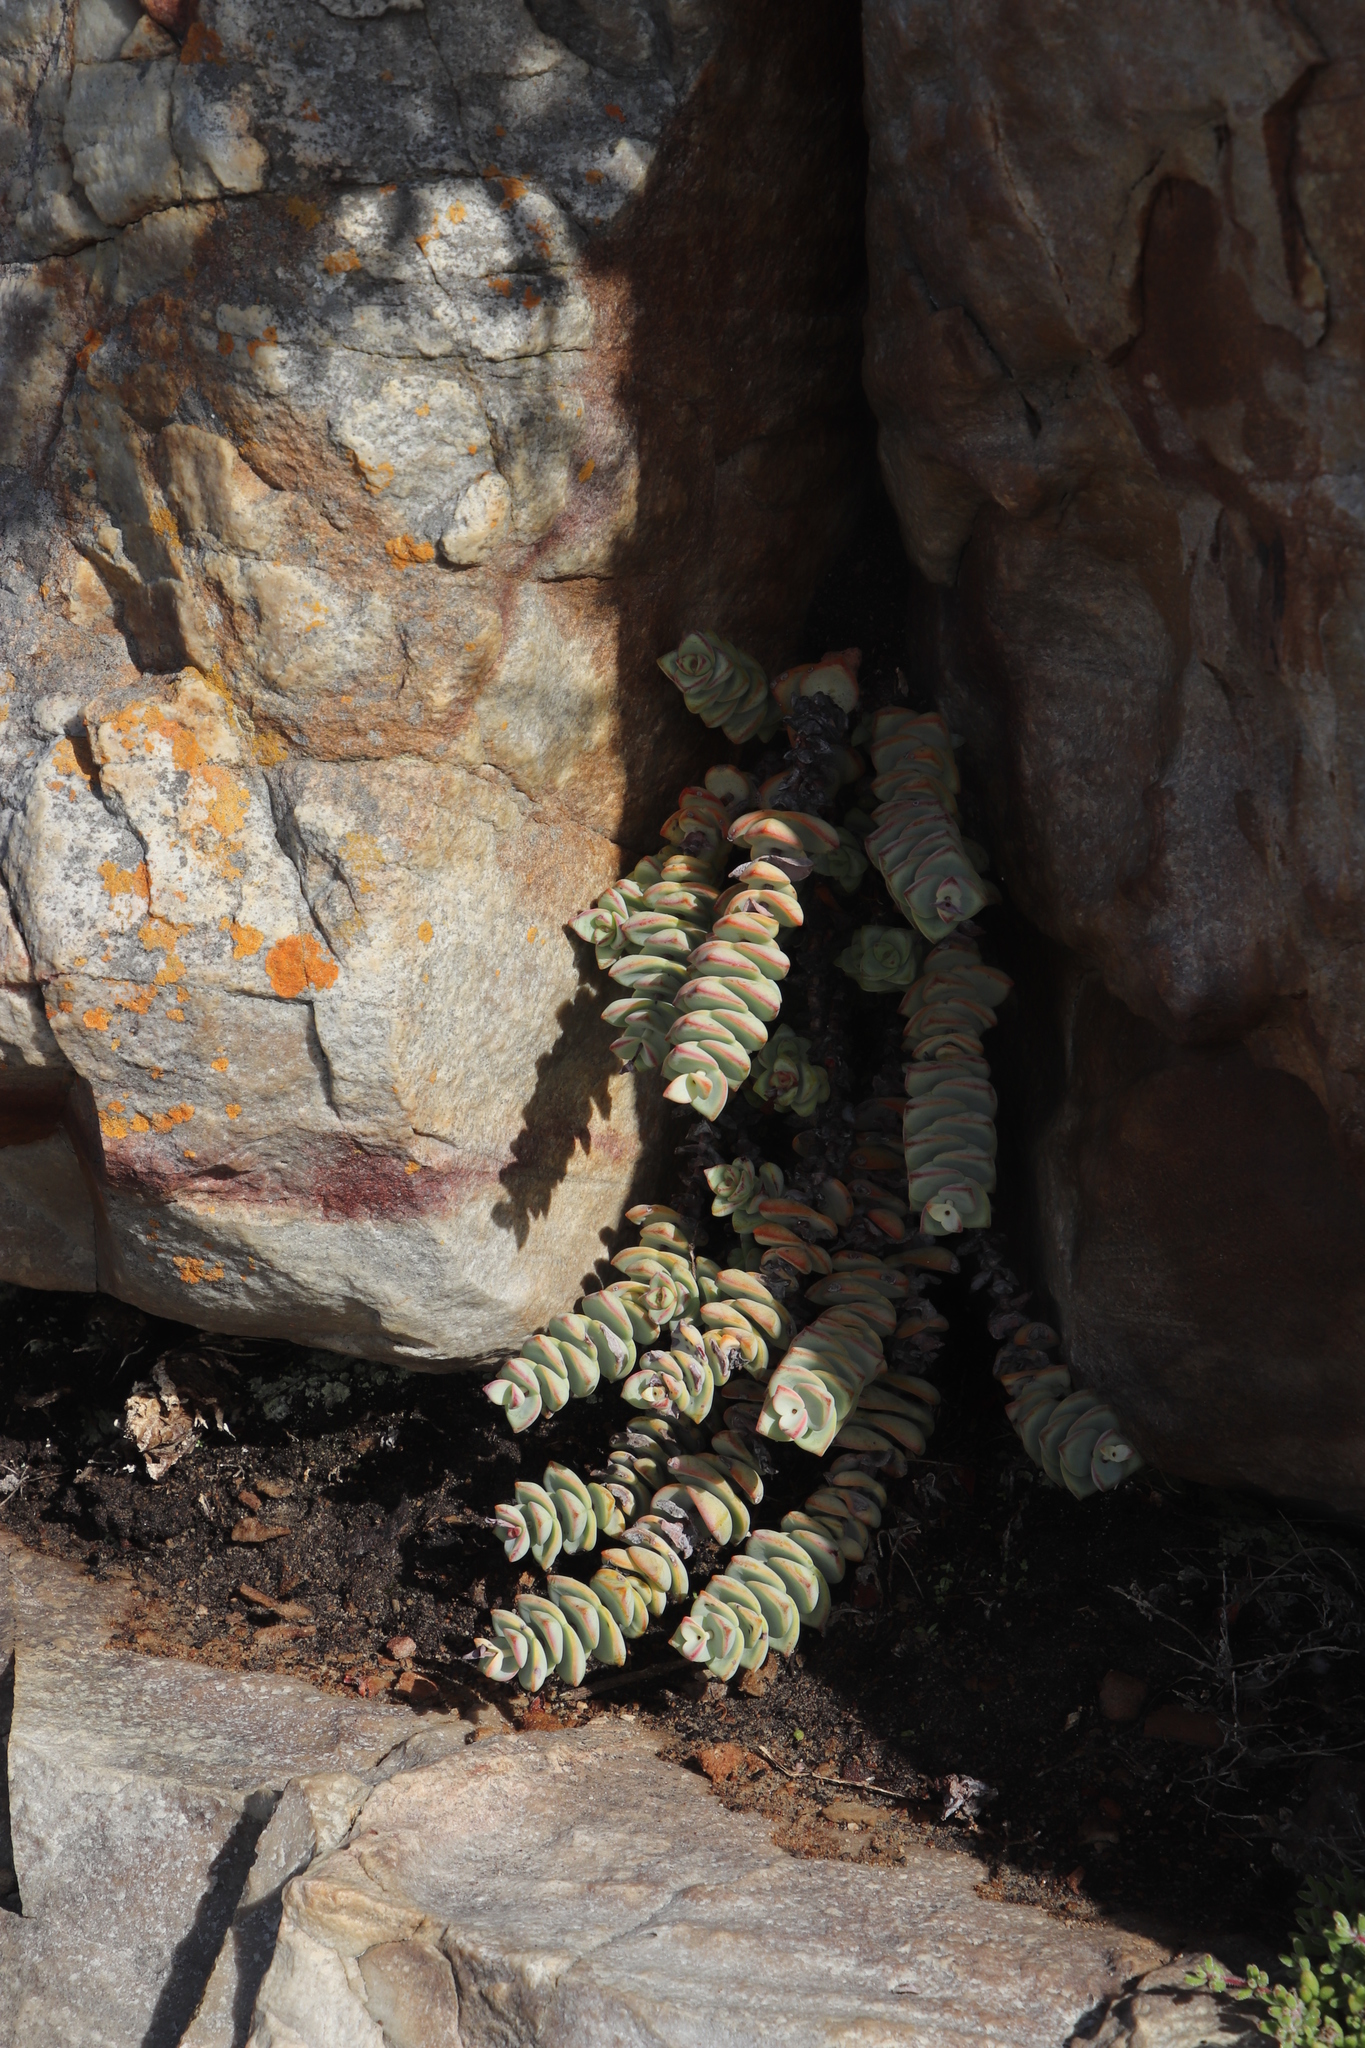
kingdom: Plantae
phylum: Tracheophyta
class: Magnoliopsida
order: Saxifragales
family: Crassulaceae
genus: Crassula
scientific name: Crassula rupestris
